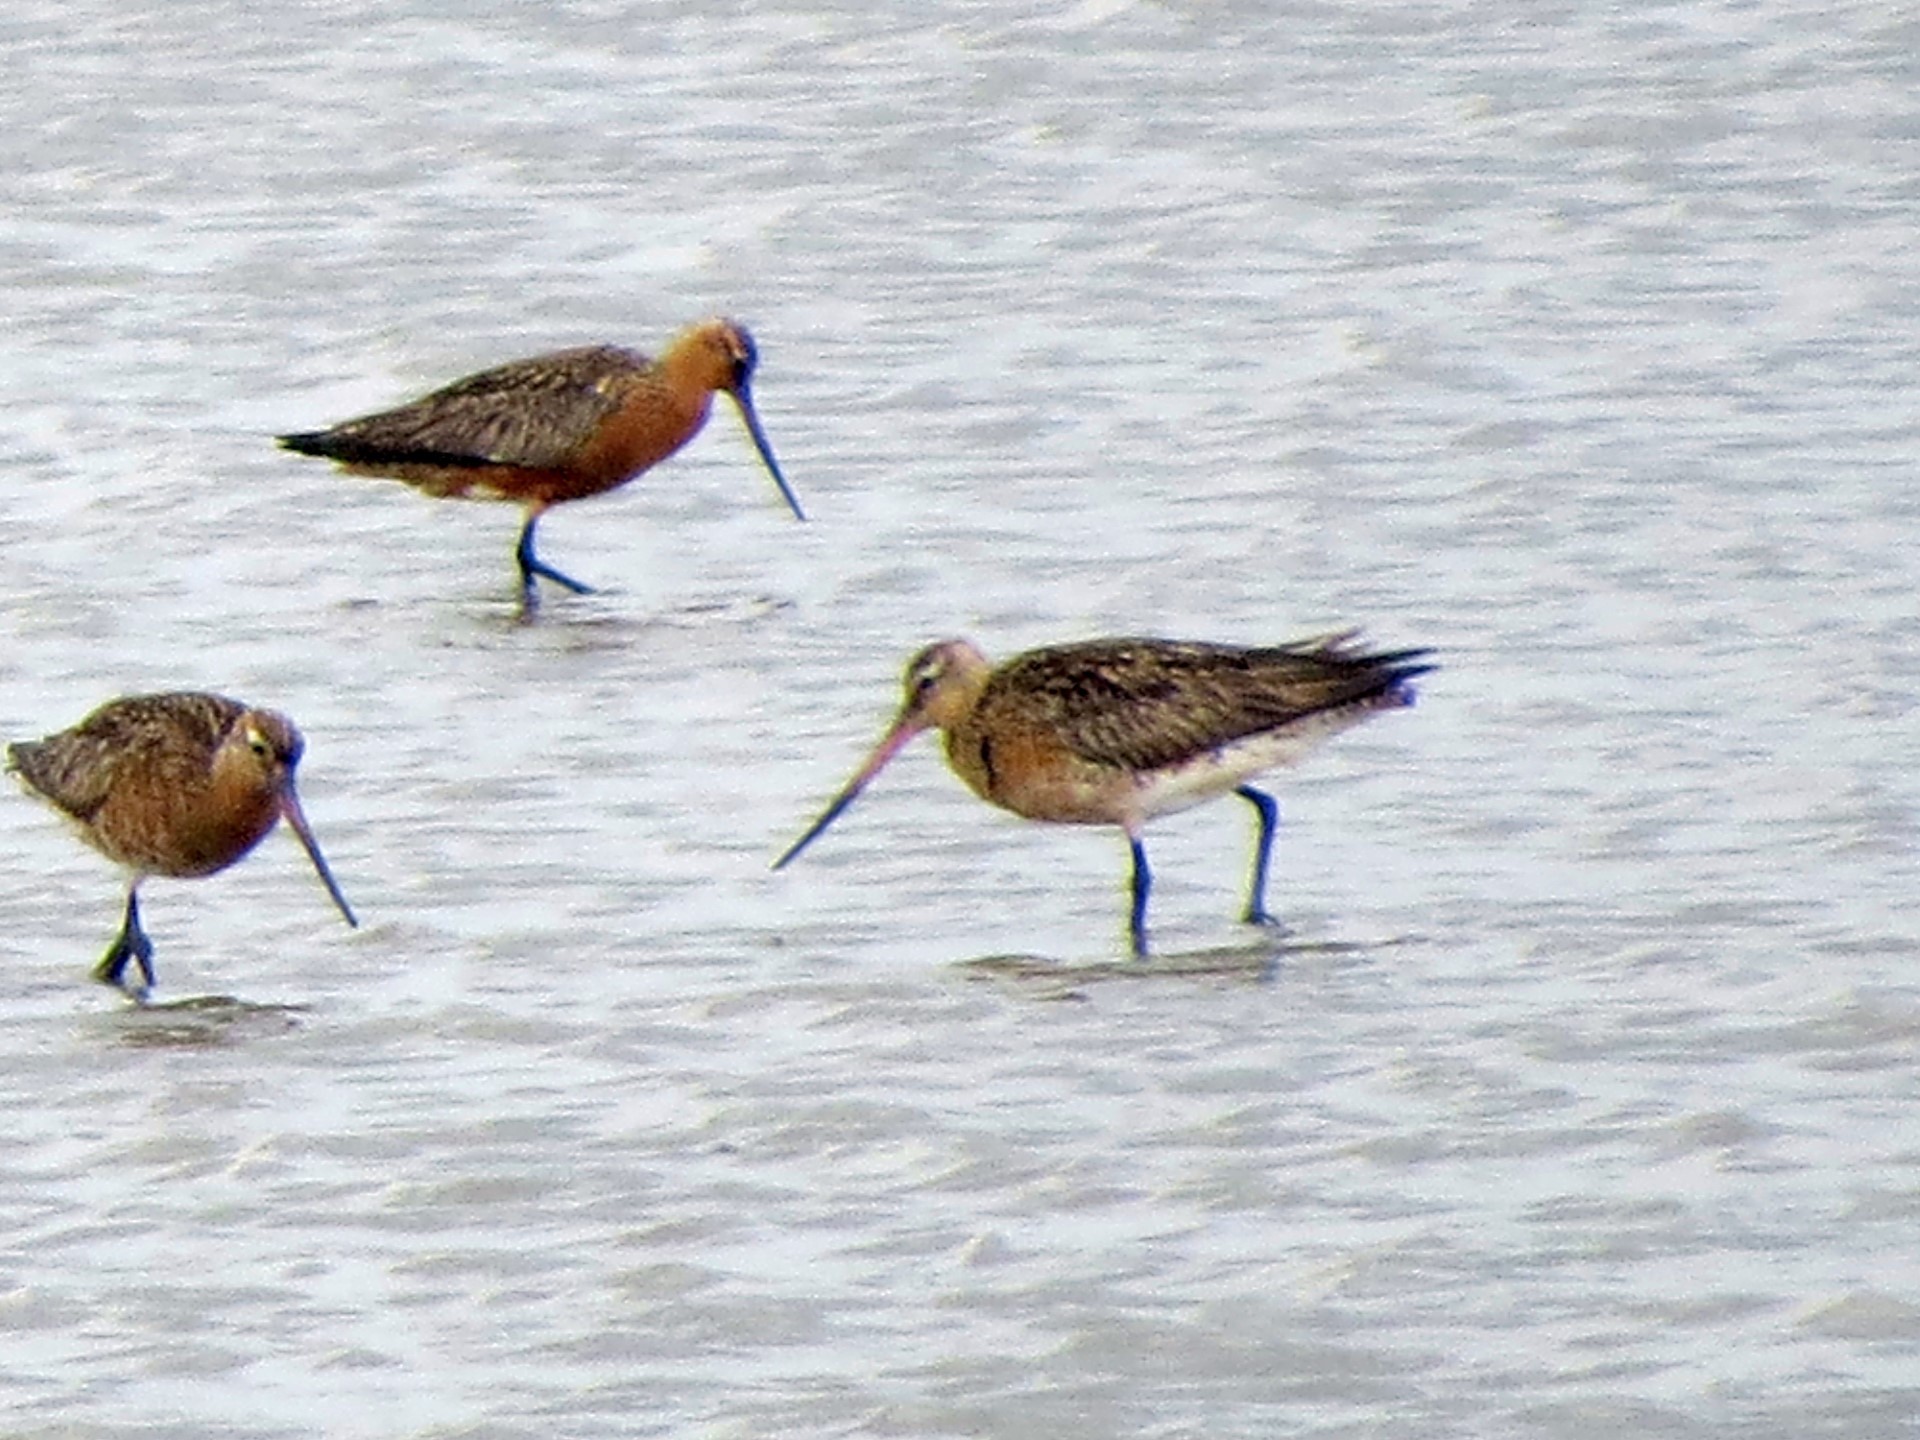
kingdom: Animalia
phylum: Chordata
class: Aves
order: Charadriiformes
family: Scolopacidae
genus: Limosa
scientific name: Limosa limosa
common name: Black-tailed godwit
